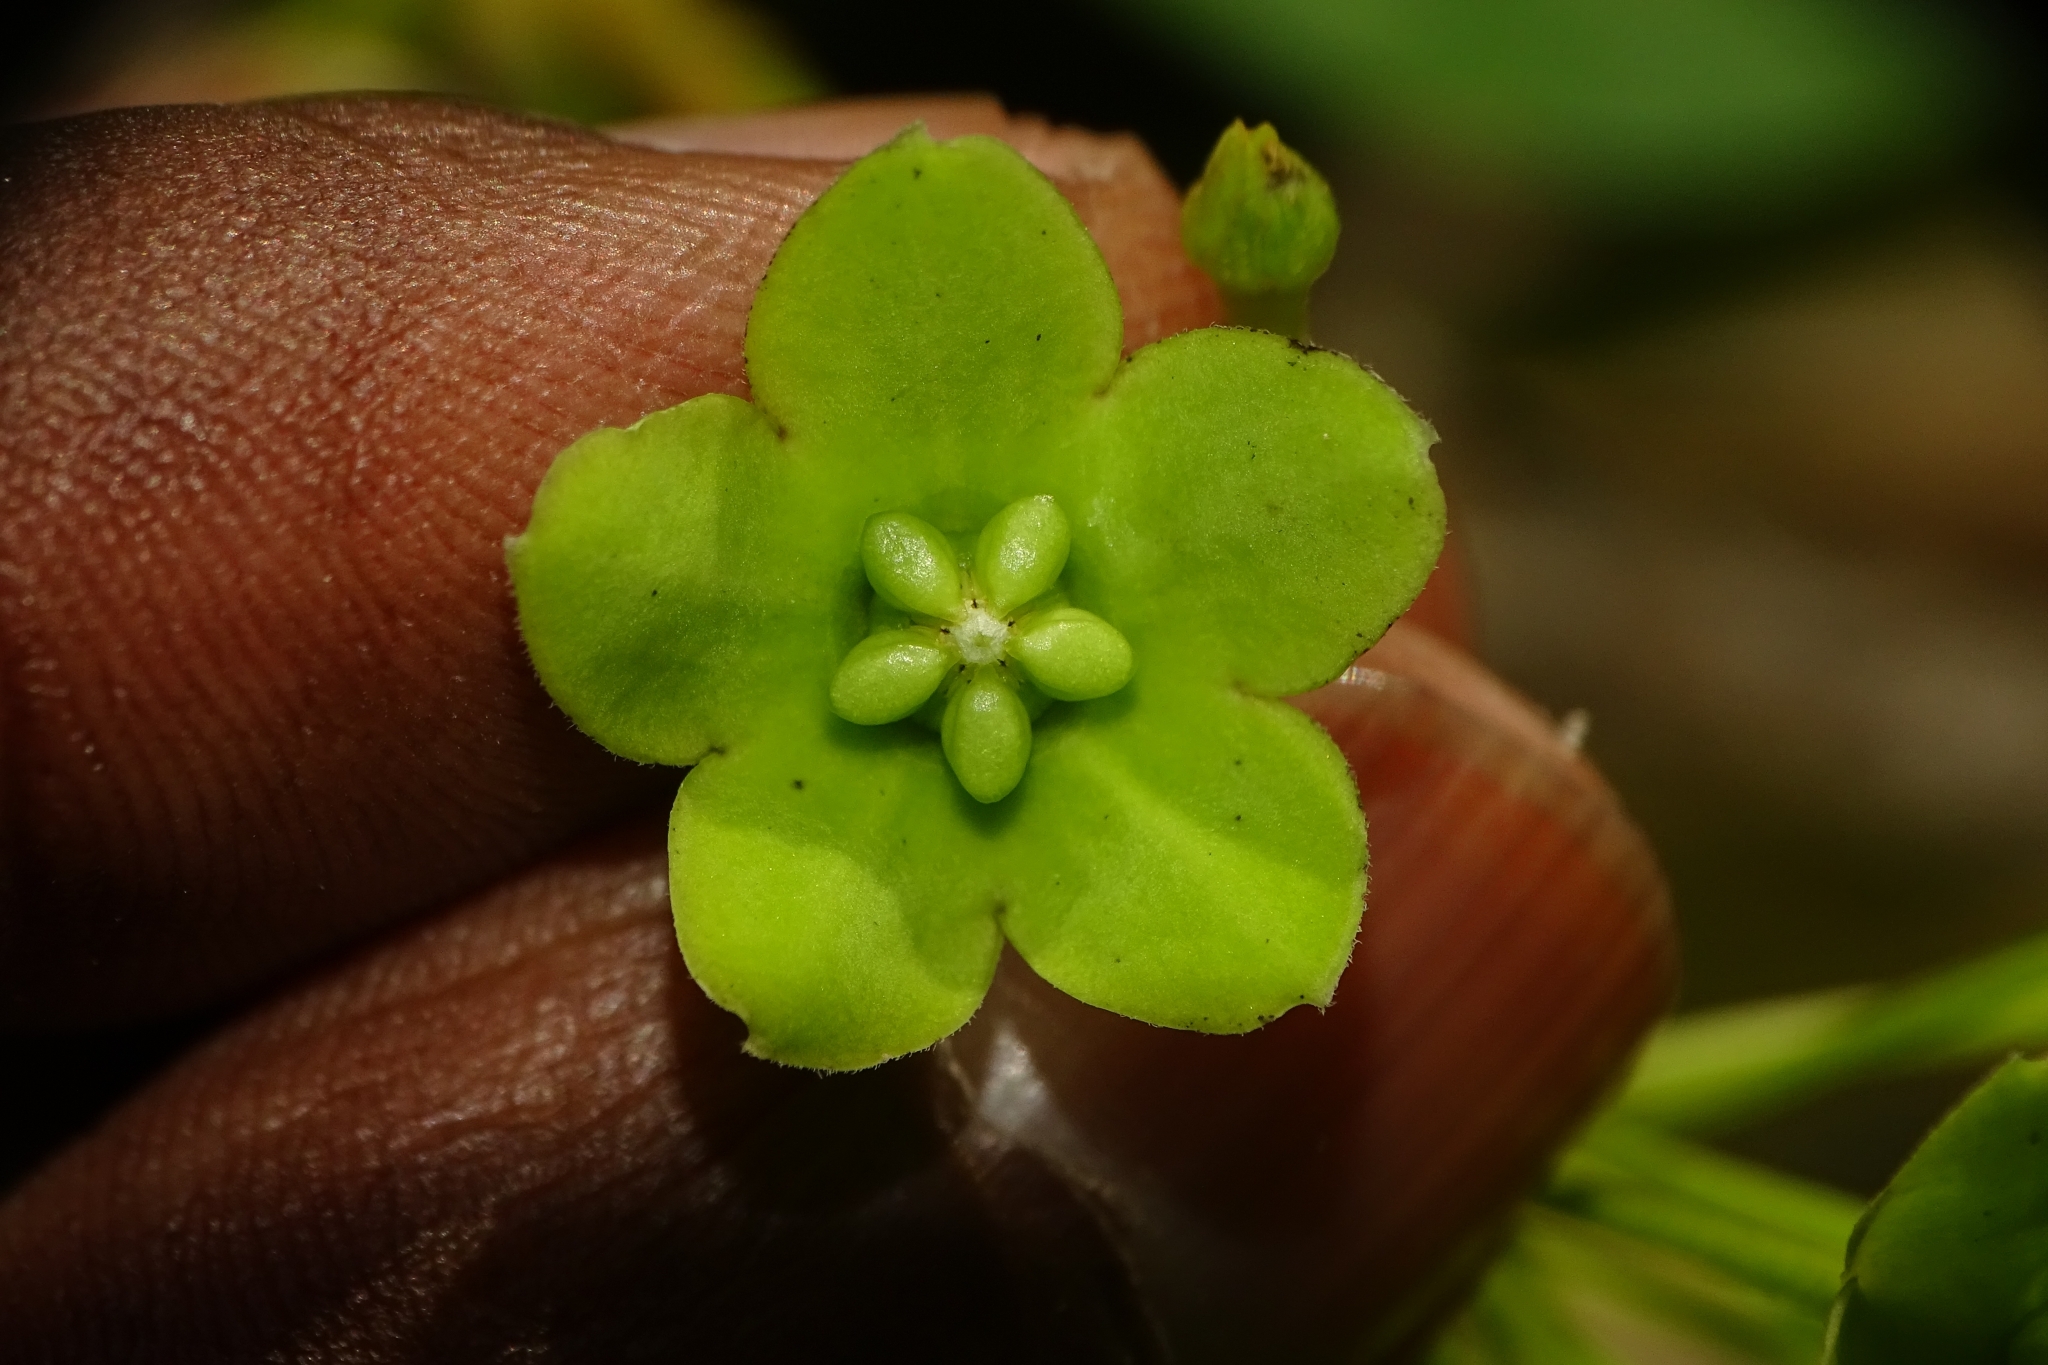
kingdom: Plantae
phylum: Tracheophyta
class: Magnoliopsida
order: Gentianales
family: Apocynaceae
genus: Stephanotis
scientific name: Stephanotis volubilis
